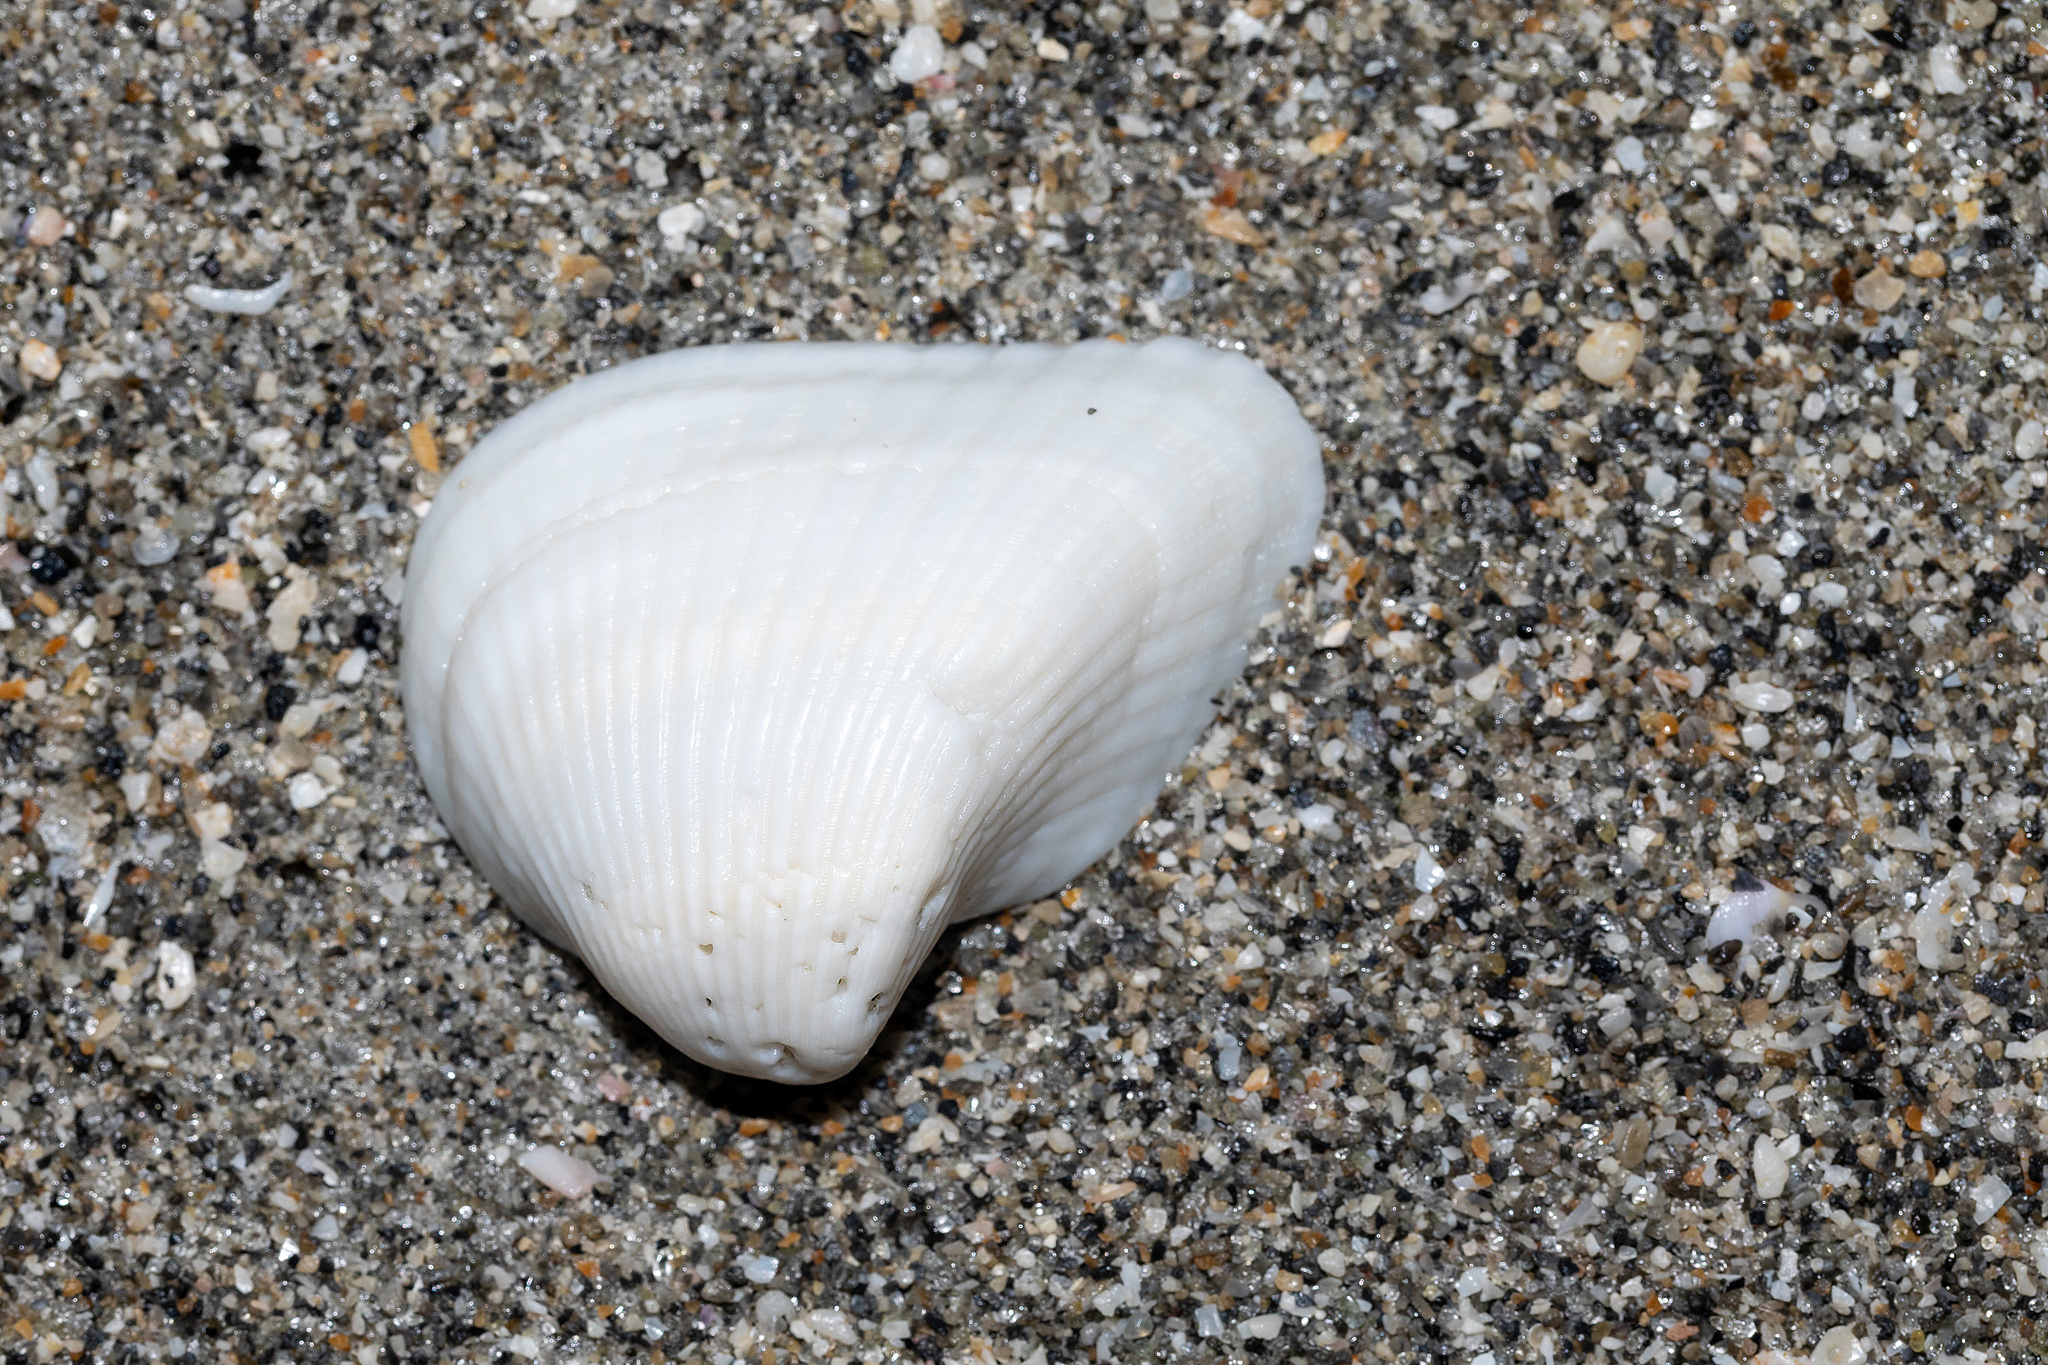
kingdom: Animalia
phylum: Mollusca
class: Bivalvia
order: Arcida
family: Noetiidae
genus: Noetia
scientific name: Noetia ponderosa
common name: Ponderous ark
